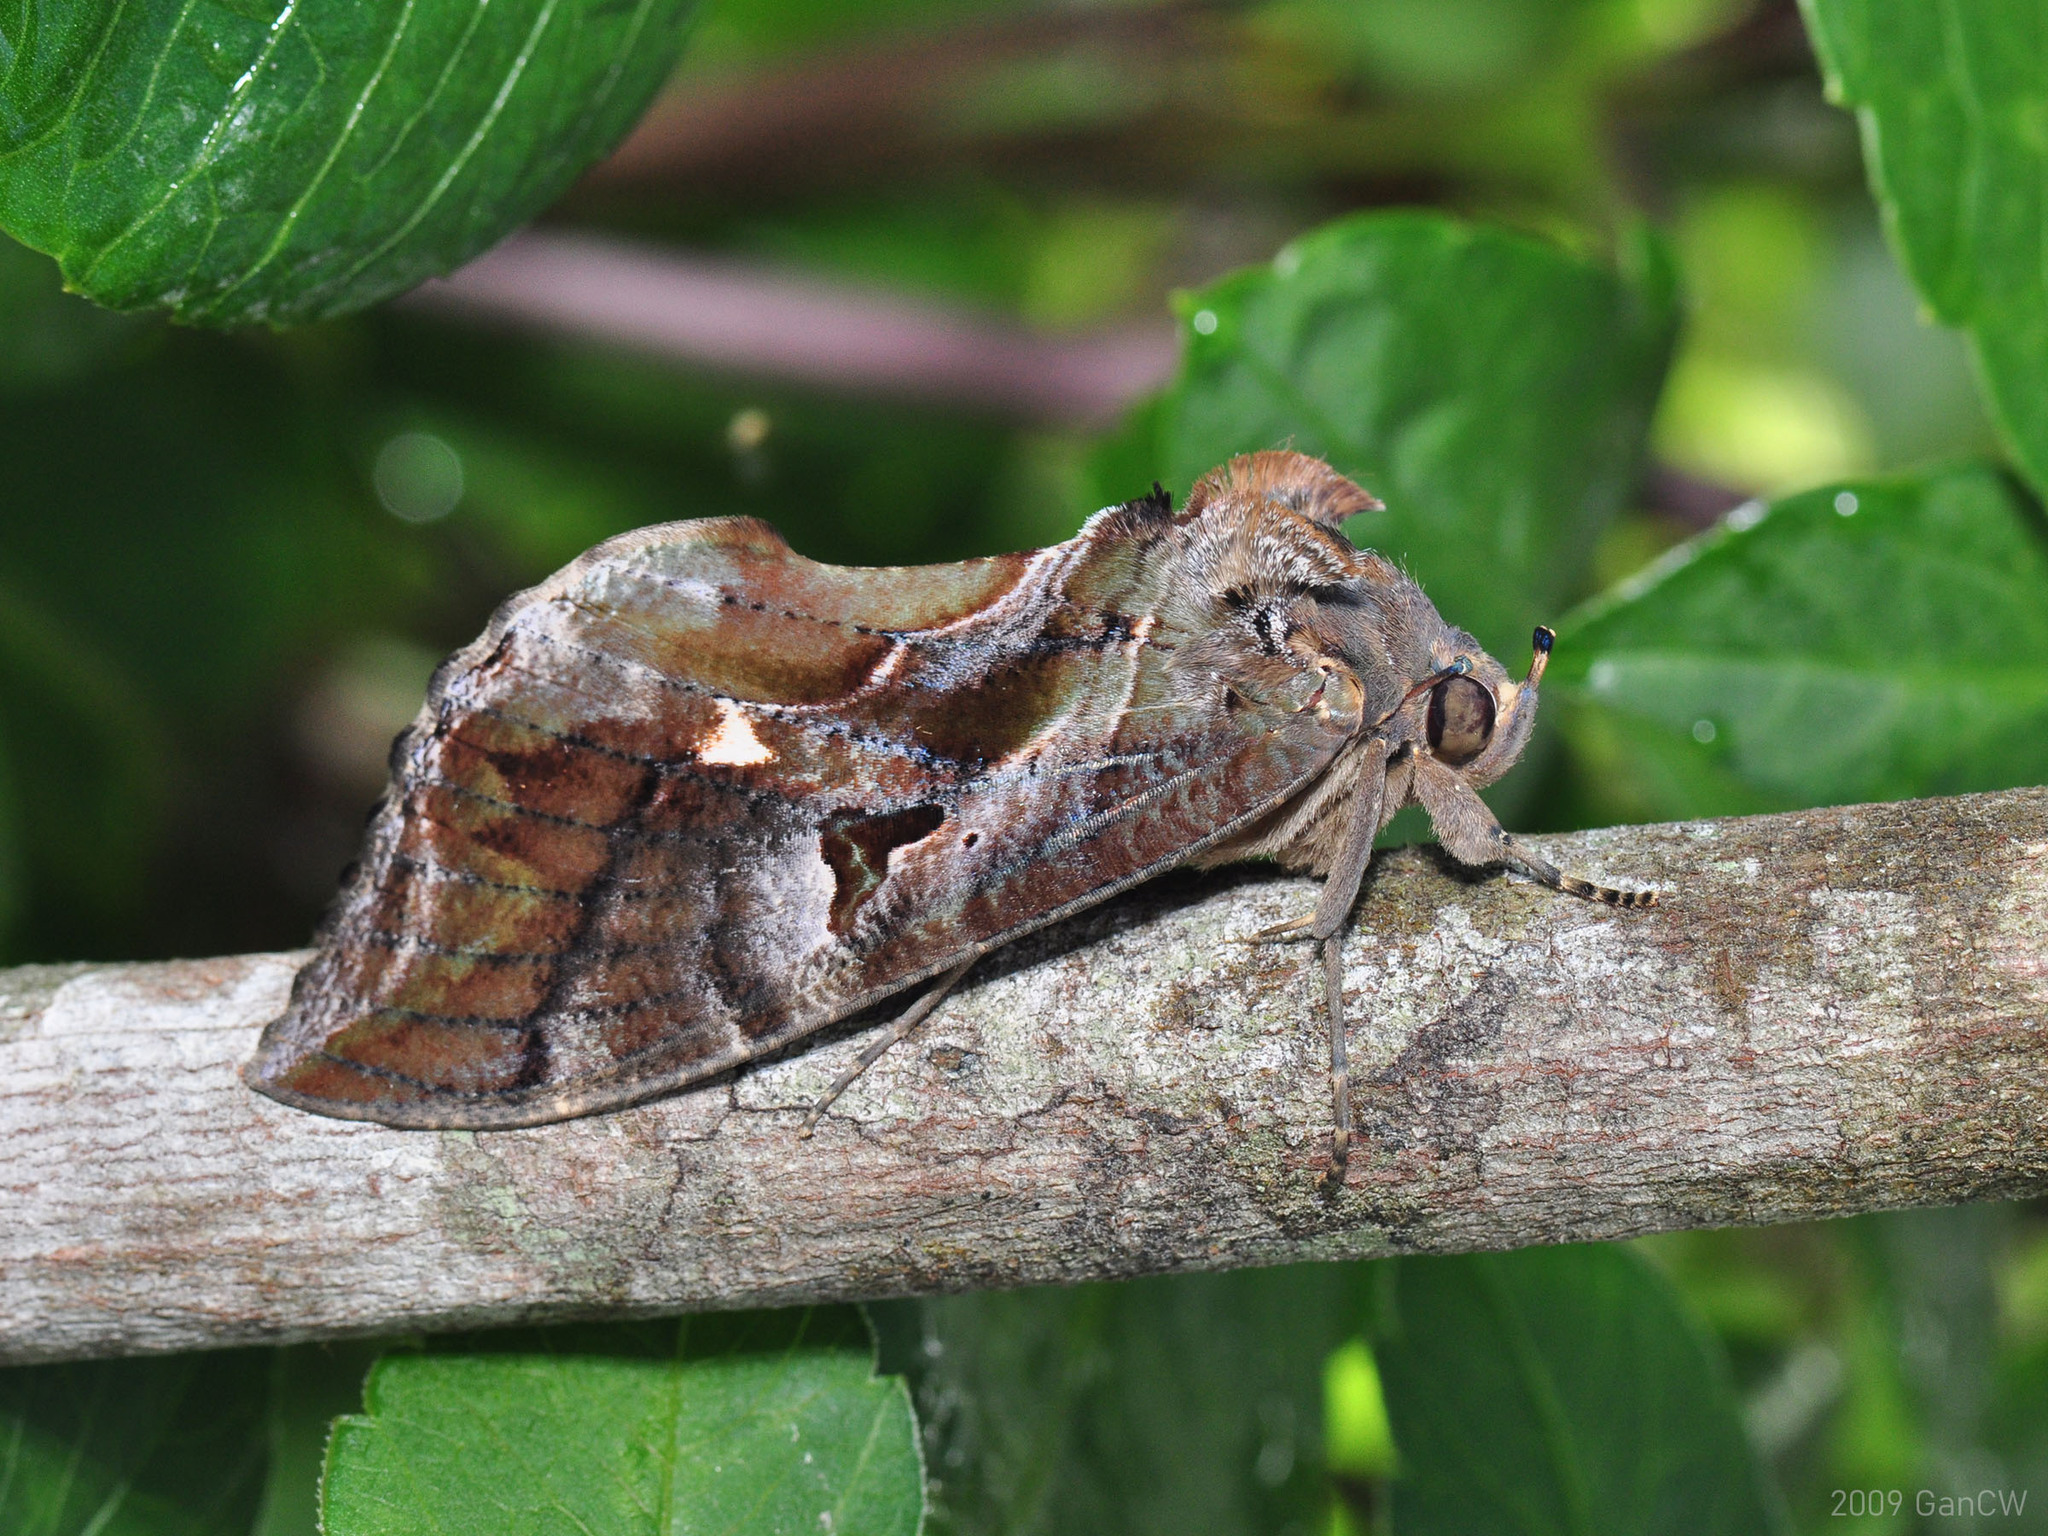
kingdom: Animalia
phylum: Arthropoda
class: Insecta
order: Lepidoptera
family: Erebidae
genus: Eudocima
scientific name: Eudocima phalonia
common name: Wasp
